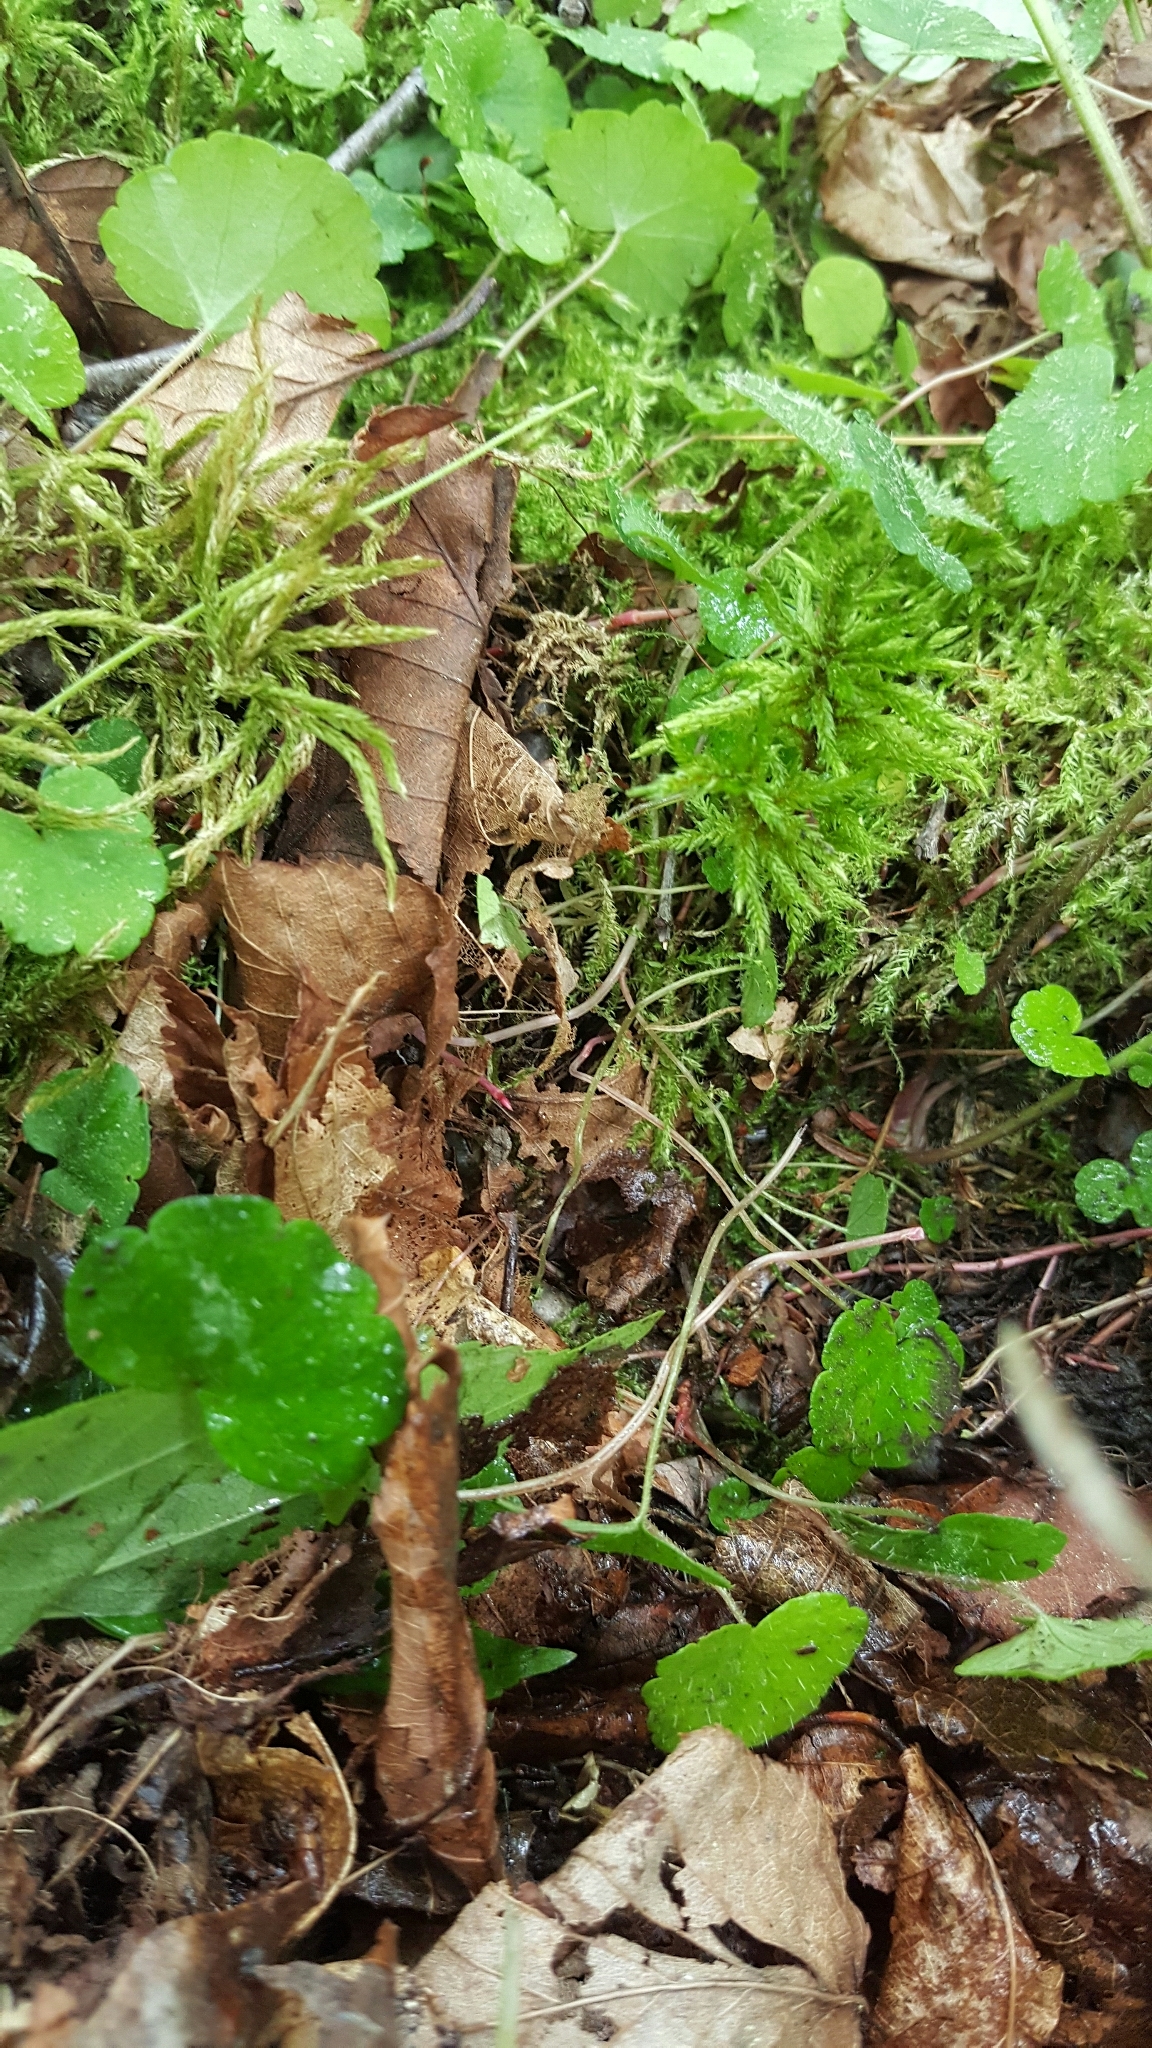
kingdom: Plantae
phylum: Bryophyta
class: Bryopsida
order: Hypnales
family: Climaciaceae
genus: Climacium
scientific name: Climacium dendroides
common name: Northern tree moss
